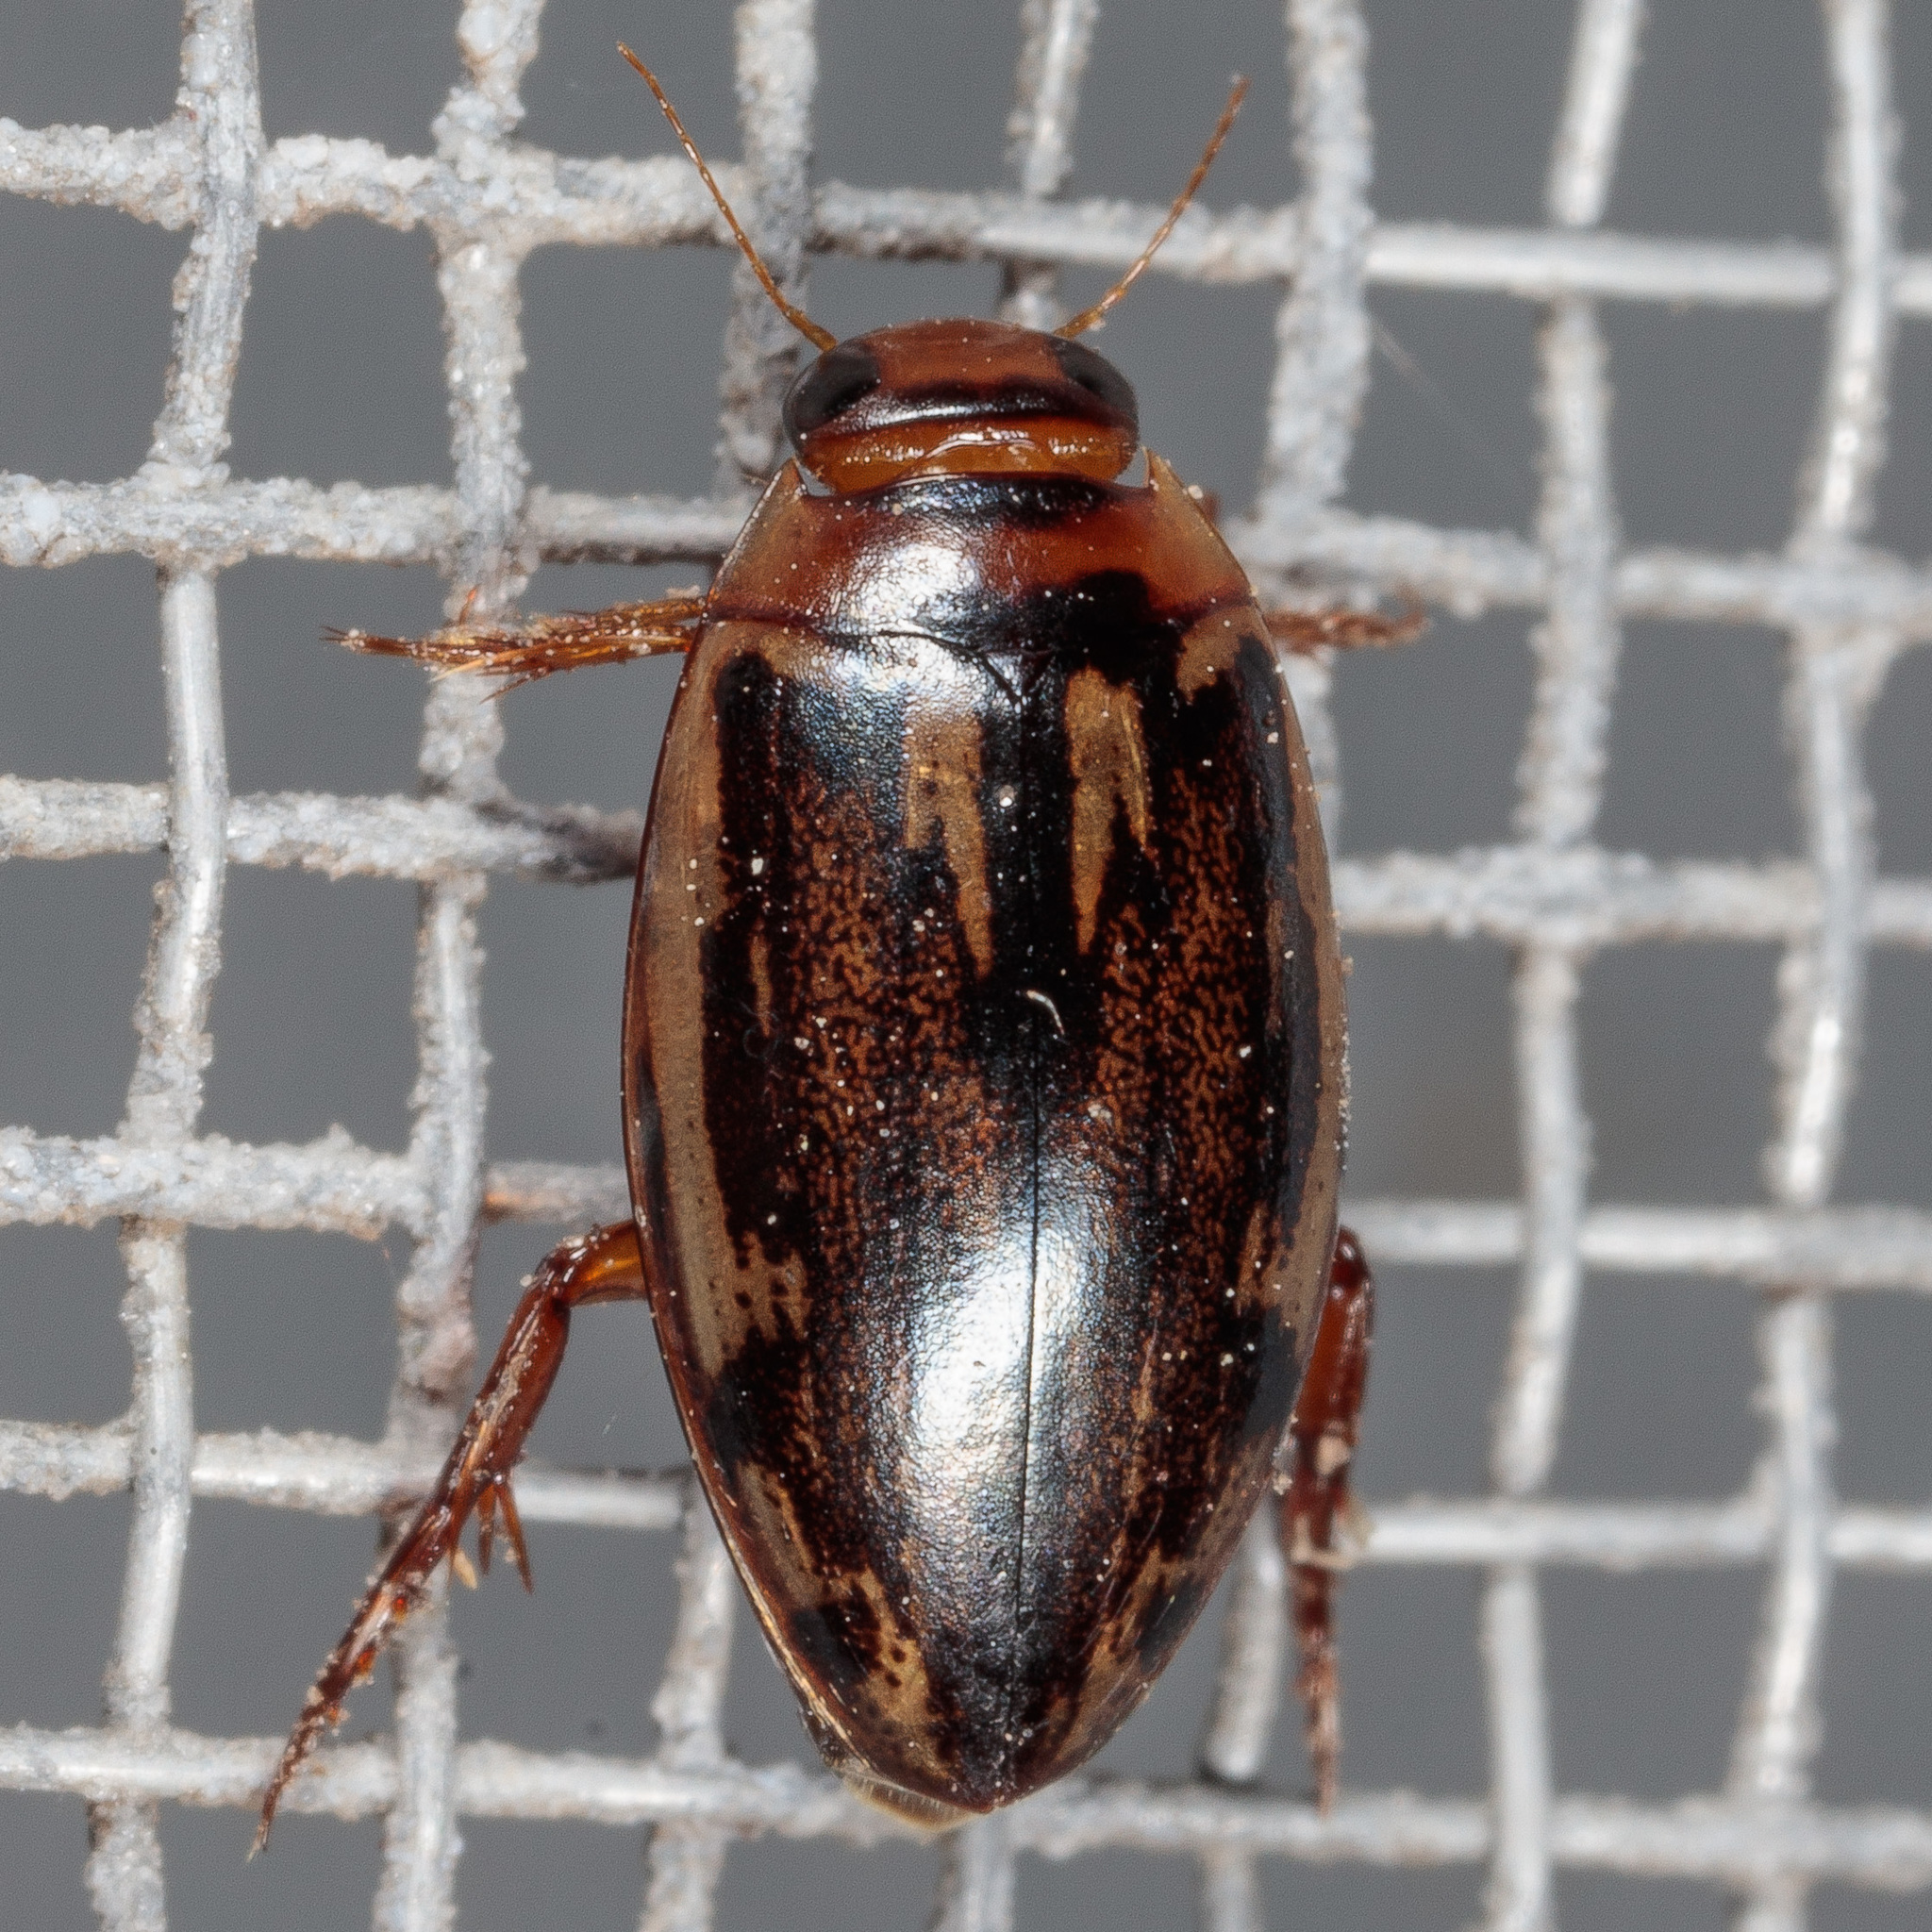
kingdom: Animalia
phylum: Arthropoda
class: Insecta
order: Coleoptera
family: Dytiscidae
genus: Coptotomus
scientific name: Coptotomus venustus
